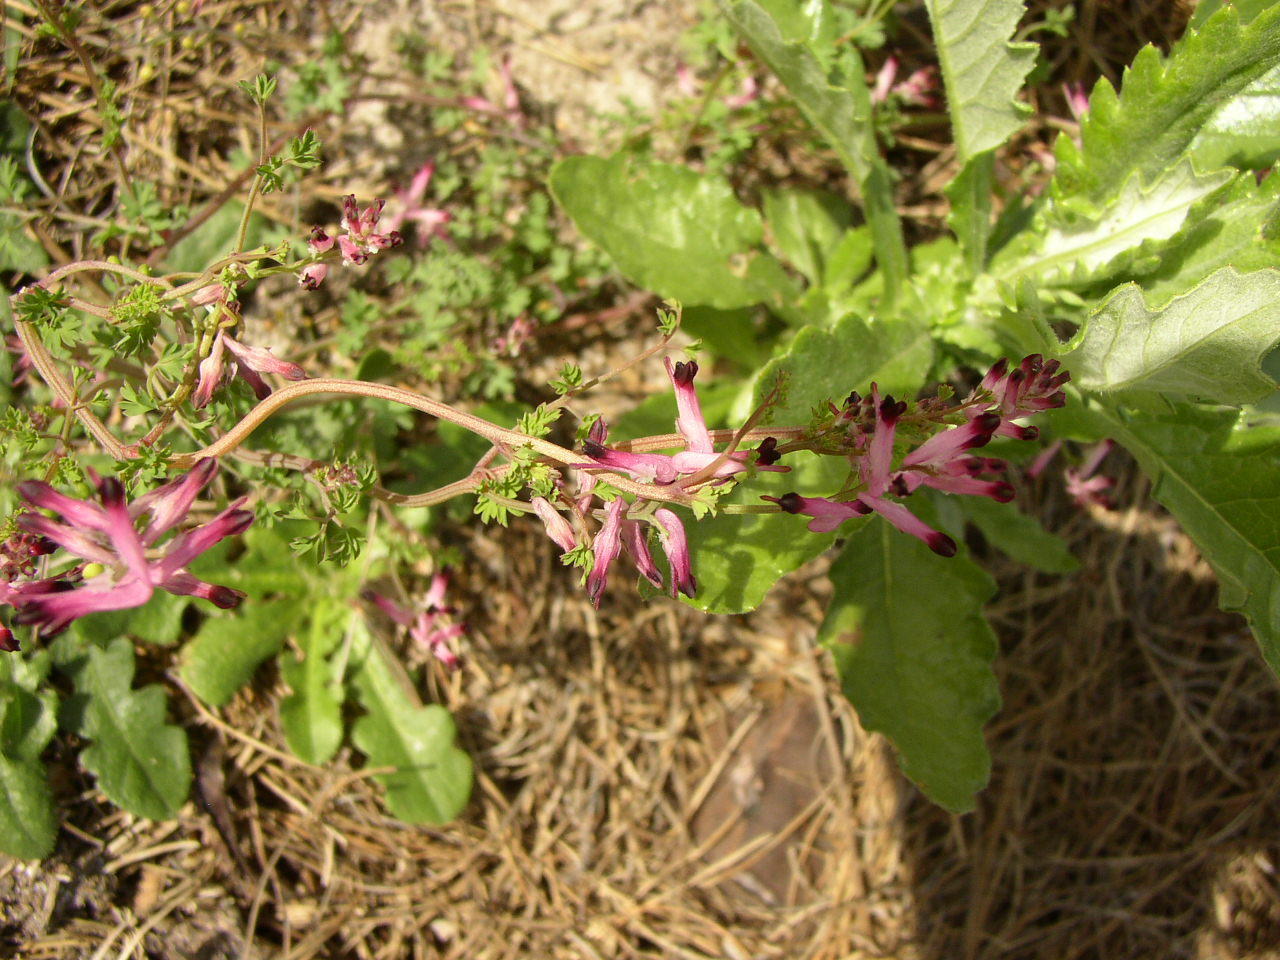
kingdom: Plantae
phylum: Tracheophyta
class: Magnoliopsida
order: Ranunculales
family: Papaveraceae
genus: Fumaria
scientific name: Fumaria muralis
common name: Common ramping-fumitory
